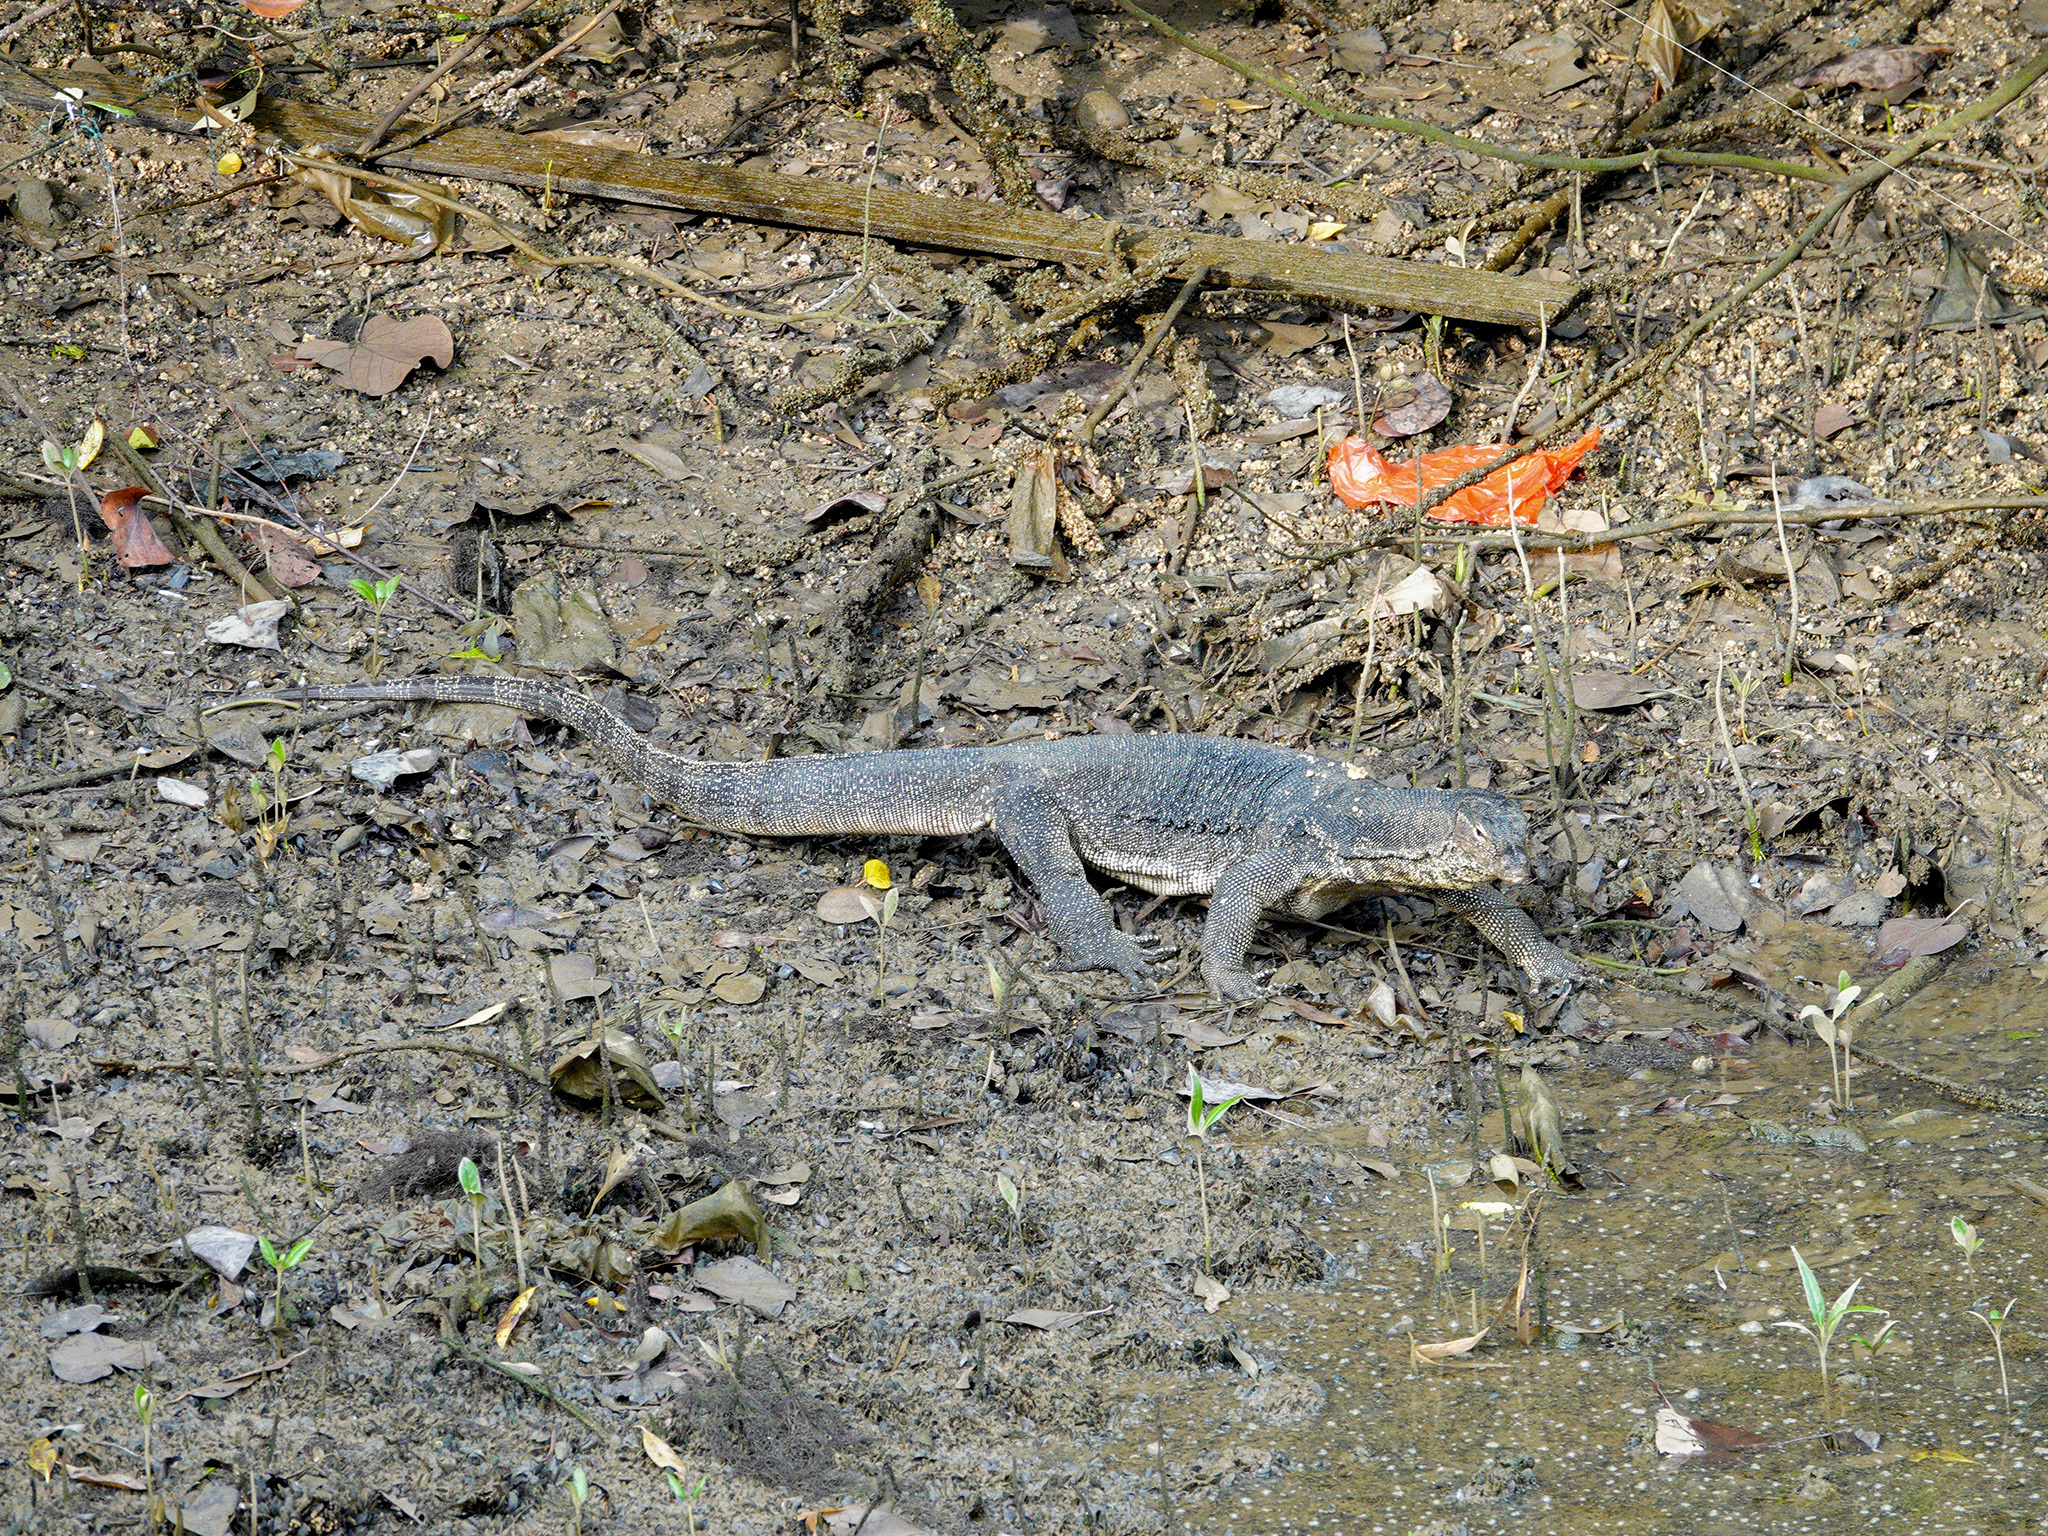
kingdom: Animalia
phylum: Chordata
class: Squamata
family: Varanidae
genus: Varanus
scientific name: Varanus salvator
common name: Common water monitor
